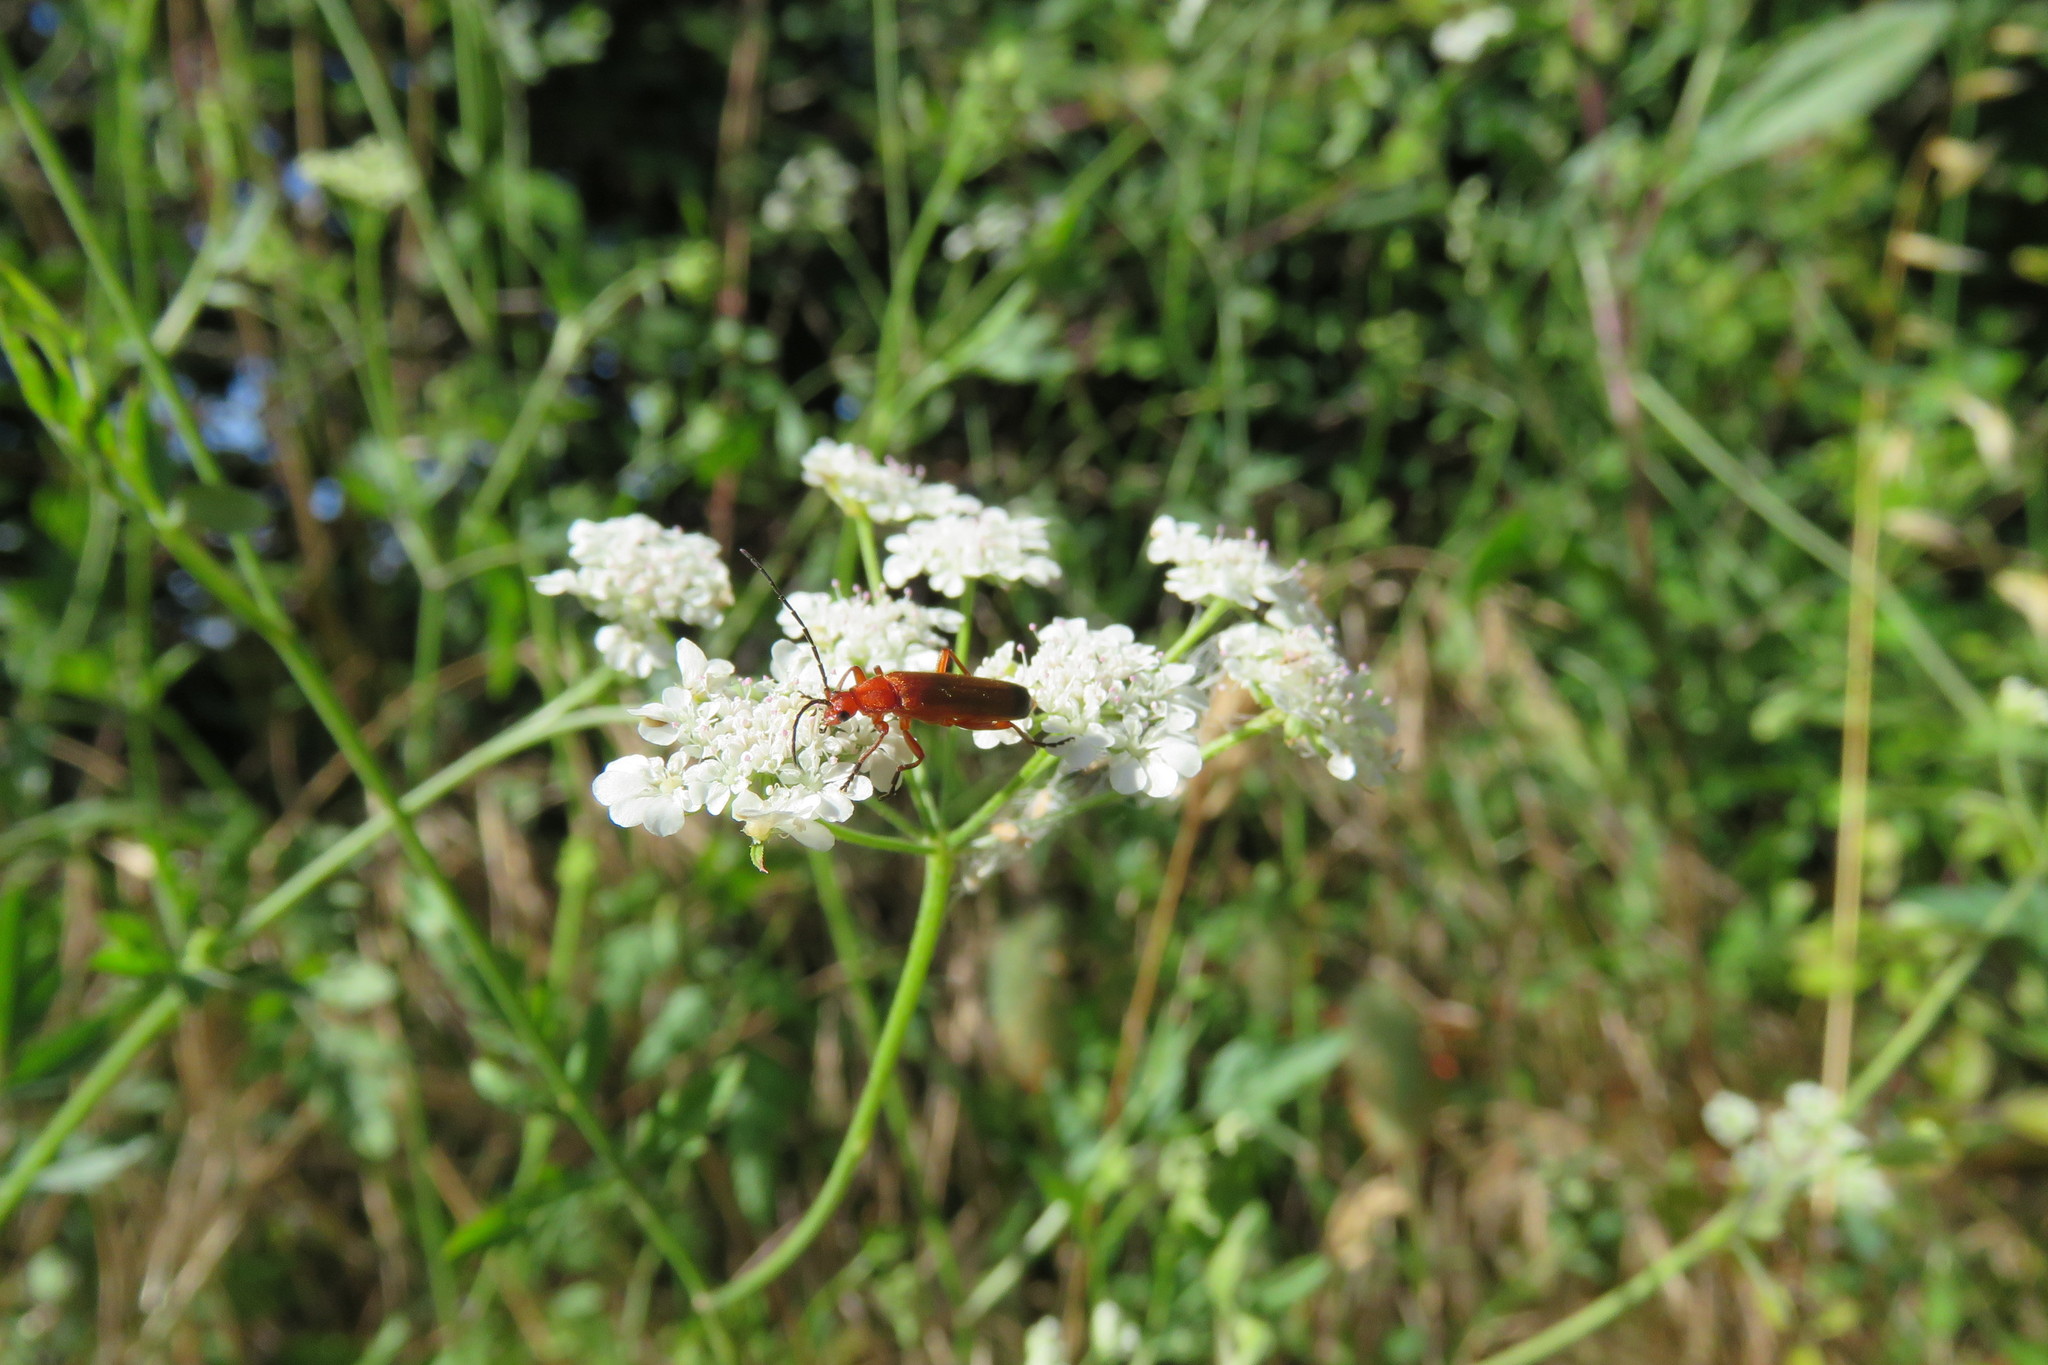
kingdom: Animalia
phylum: Arthropoda
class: Insecta
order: Coleoptera
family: Cantharidae
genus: Rhagonycha
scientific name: Rhagonycha fulva
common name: Common red soldier beetle
